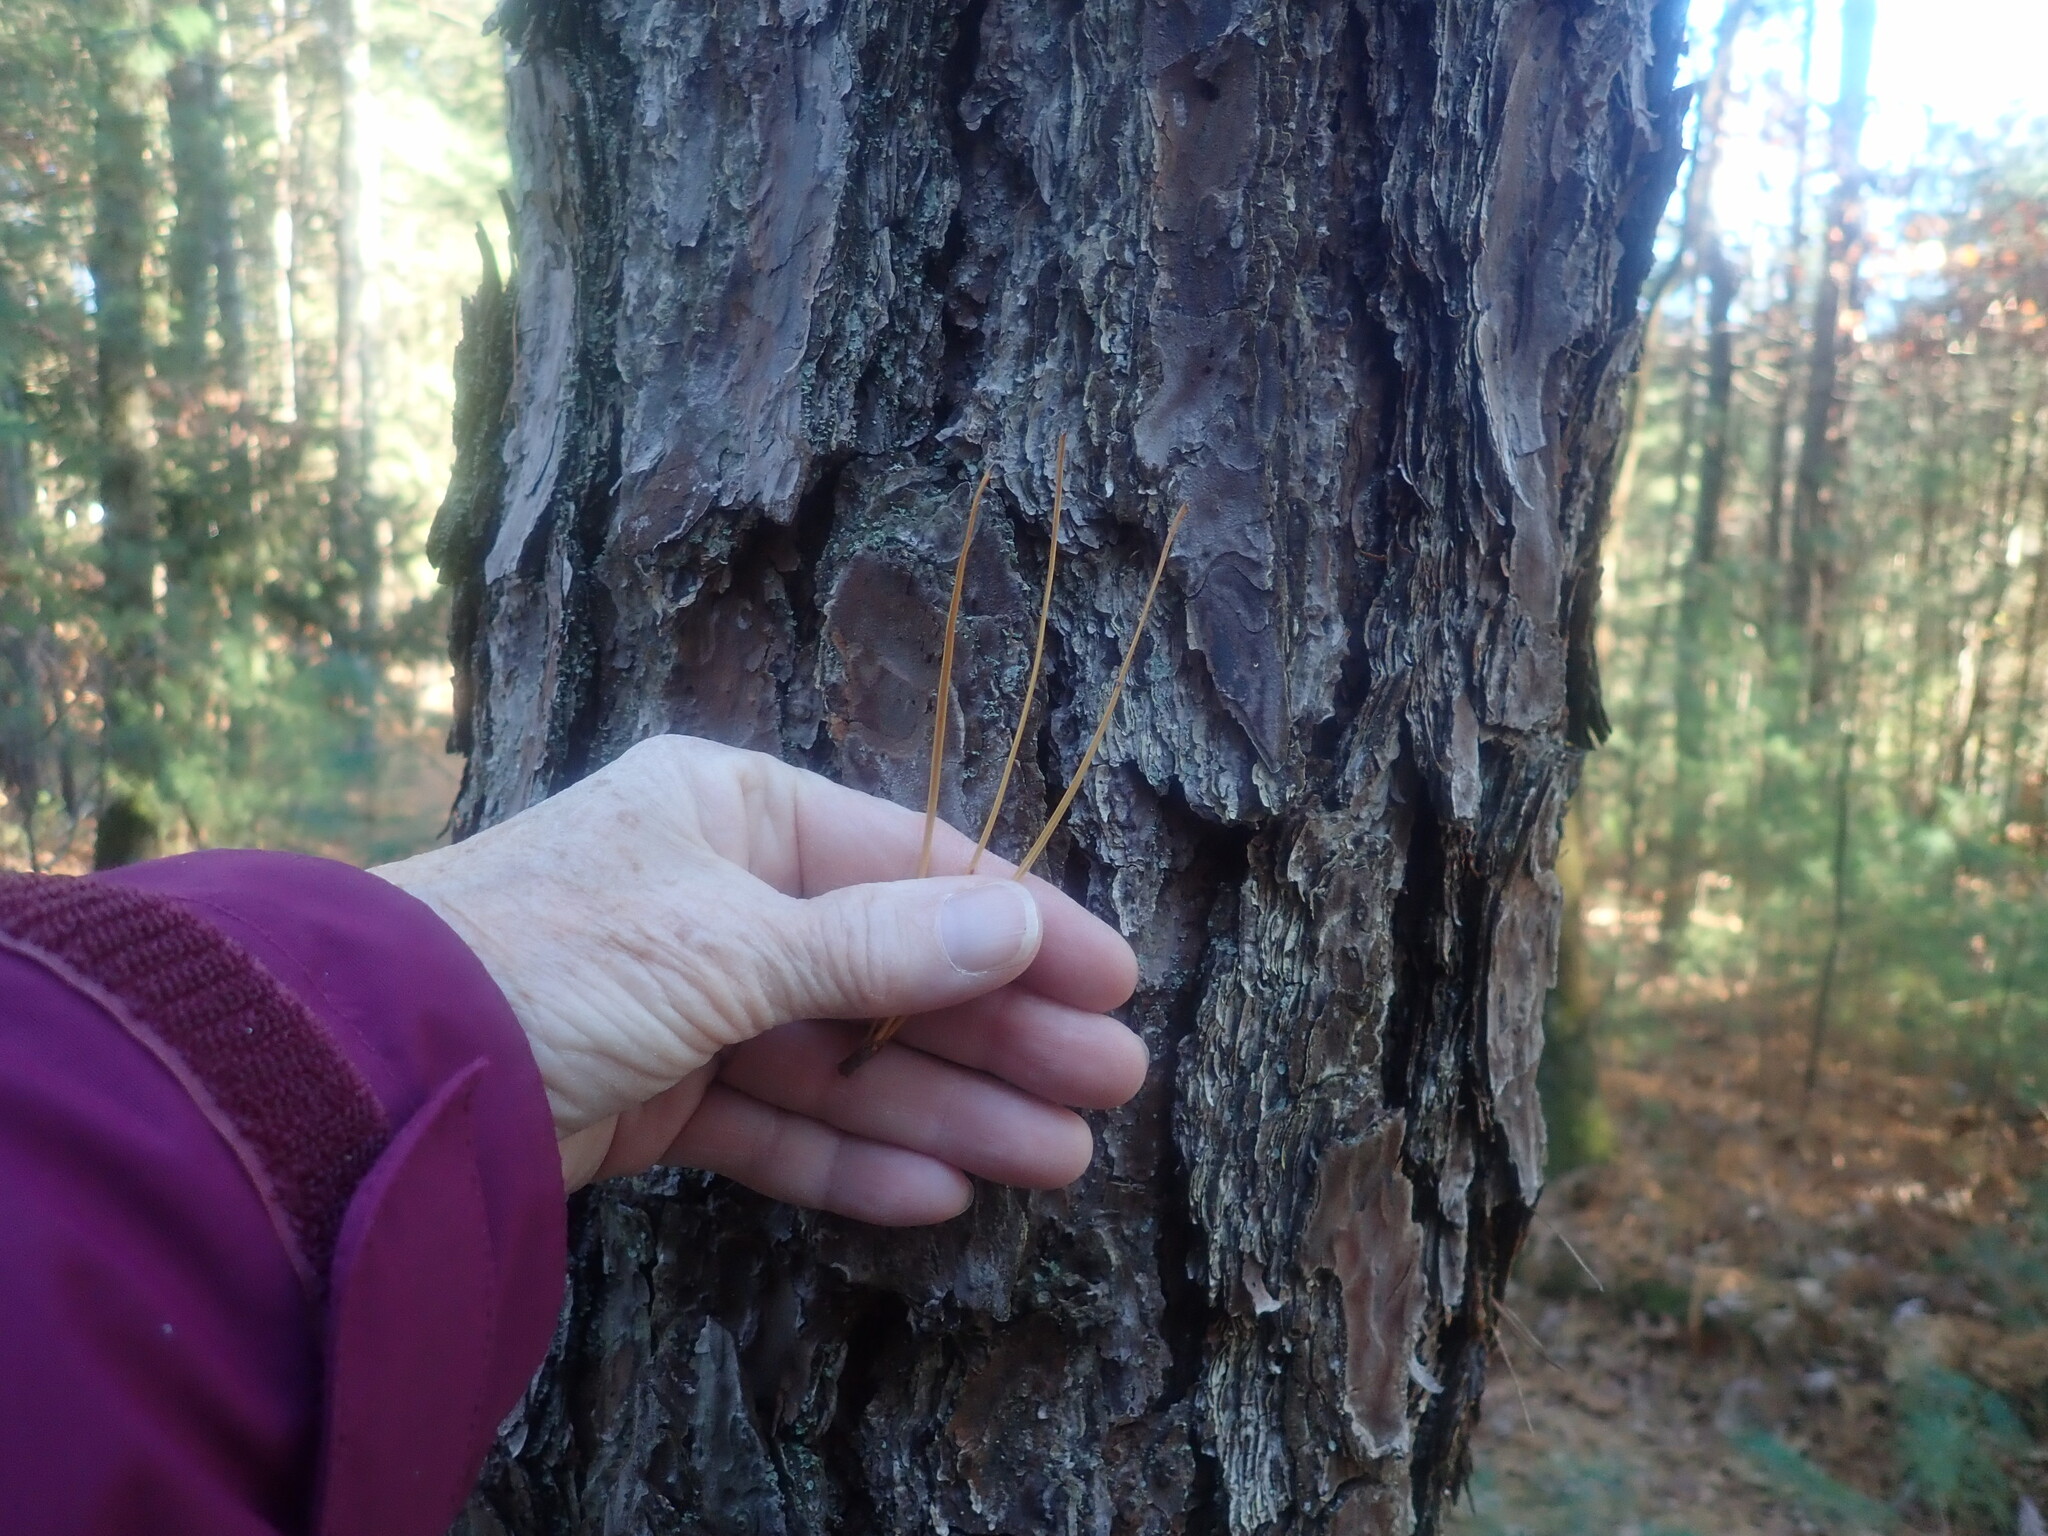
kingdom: Plantae
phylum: Tracheophyta
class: Pinopsida
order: Pinales
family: Pinaceae
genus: Pinus
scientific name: Pinus rigida
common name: Pitch pine
